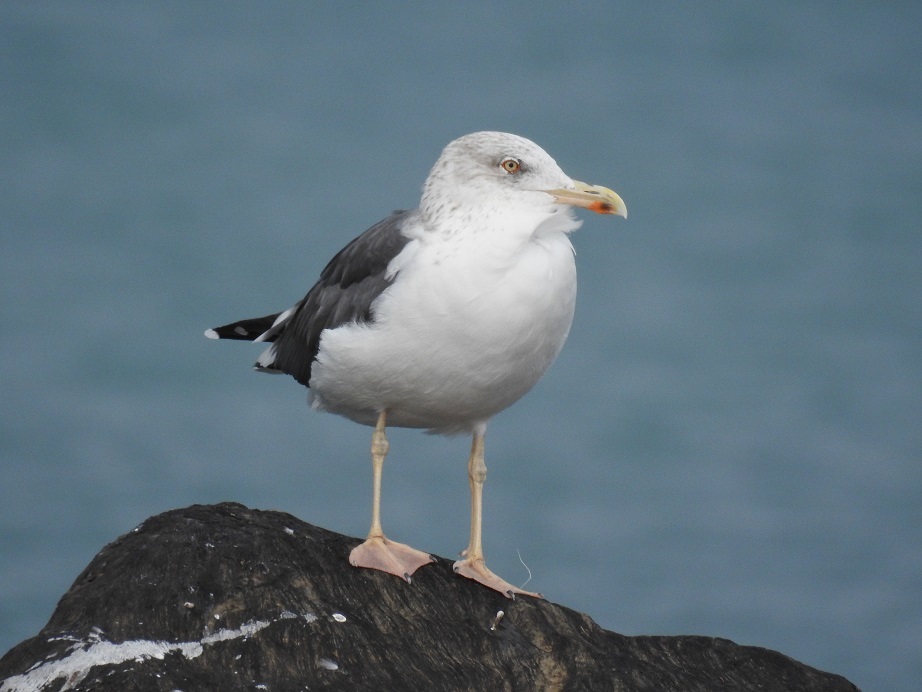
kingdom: Animalia
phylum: Chordata
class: Aves
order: Charadriiformes
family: Laridae
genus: Larus
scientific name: Larus fuscus
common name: Lesser black-backed gull
